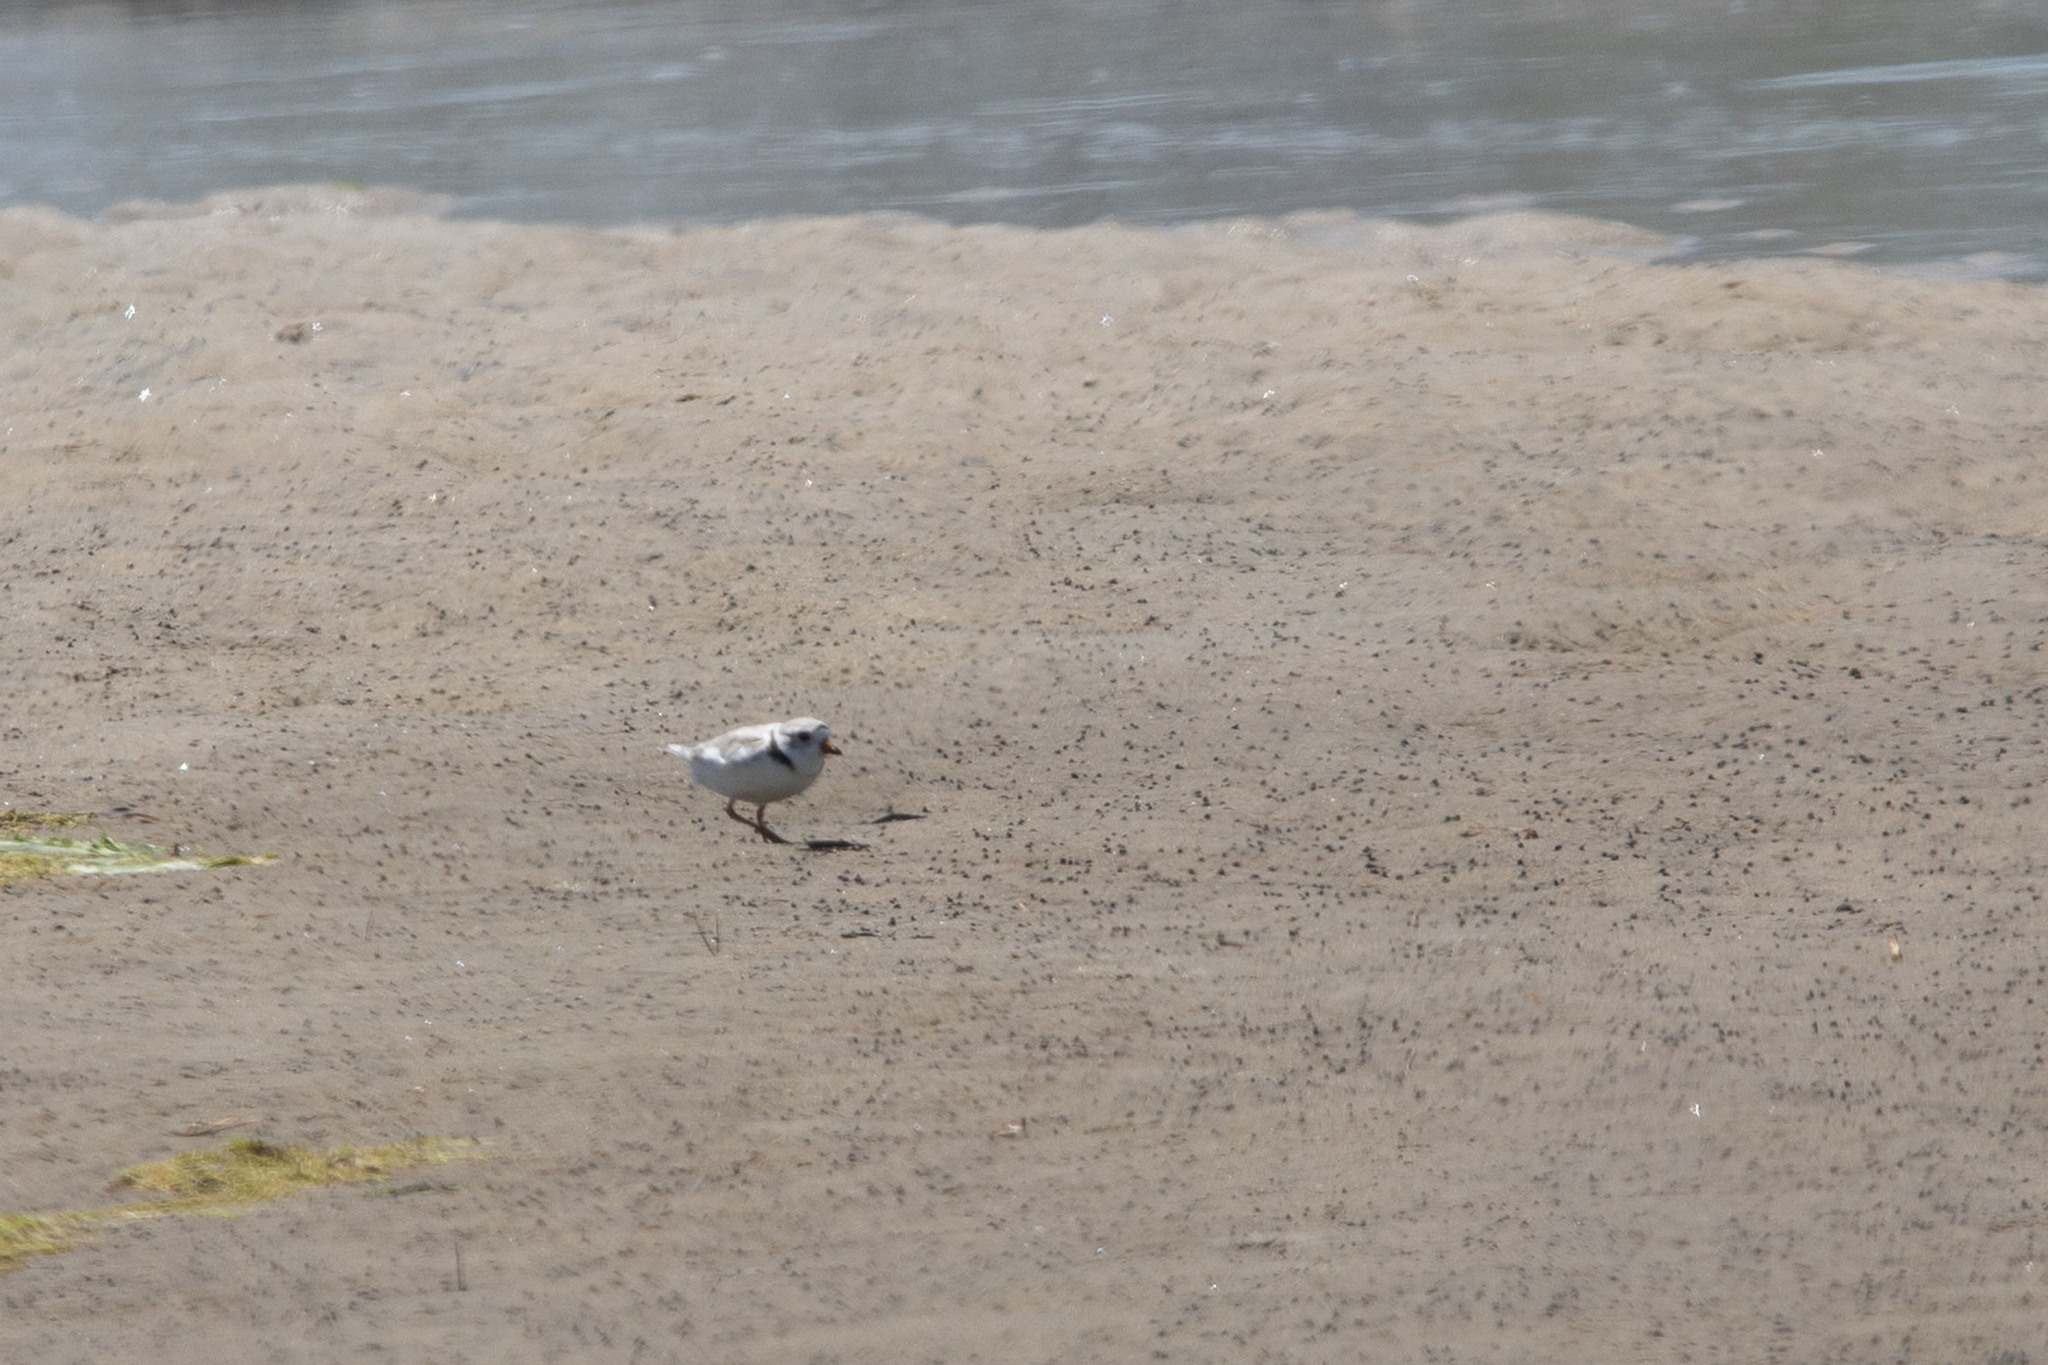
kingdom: Animalia
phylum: Chordata
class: Aves
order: Charadriiformes
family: Charadriidae
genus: Charadrius
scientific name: Charadrius melodus
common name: Piping plover
